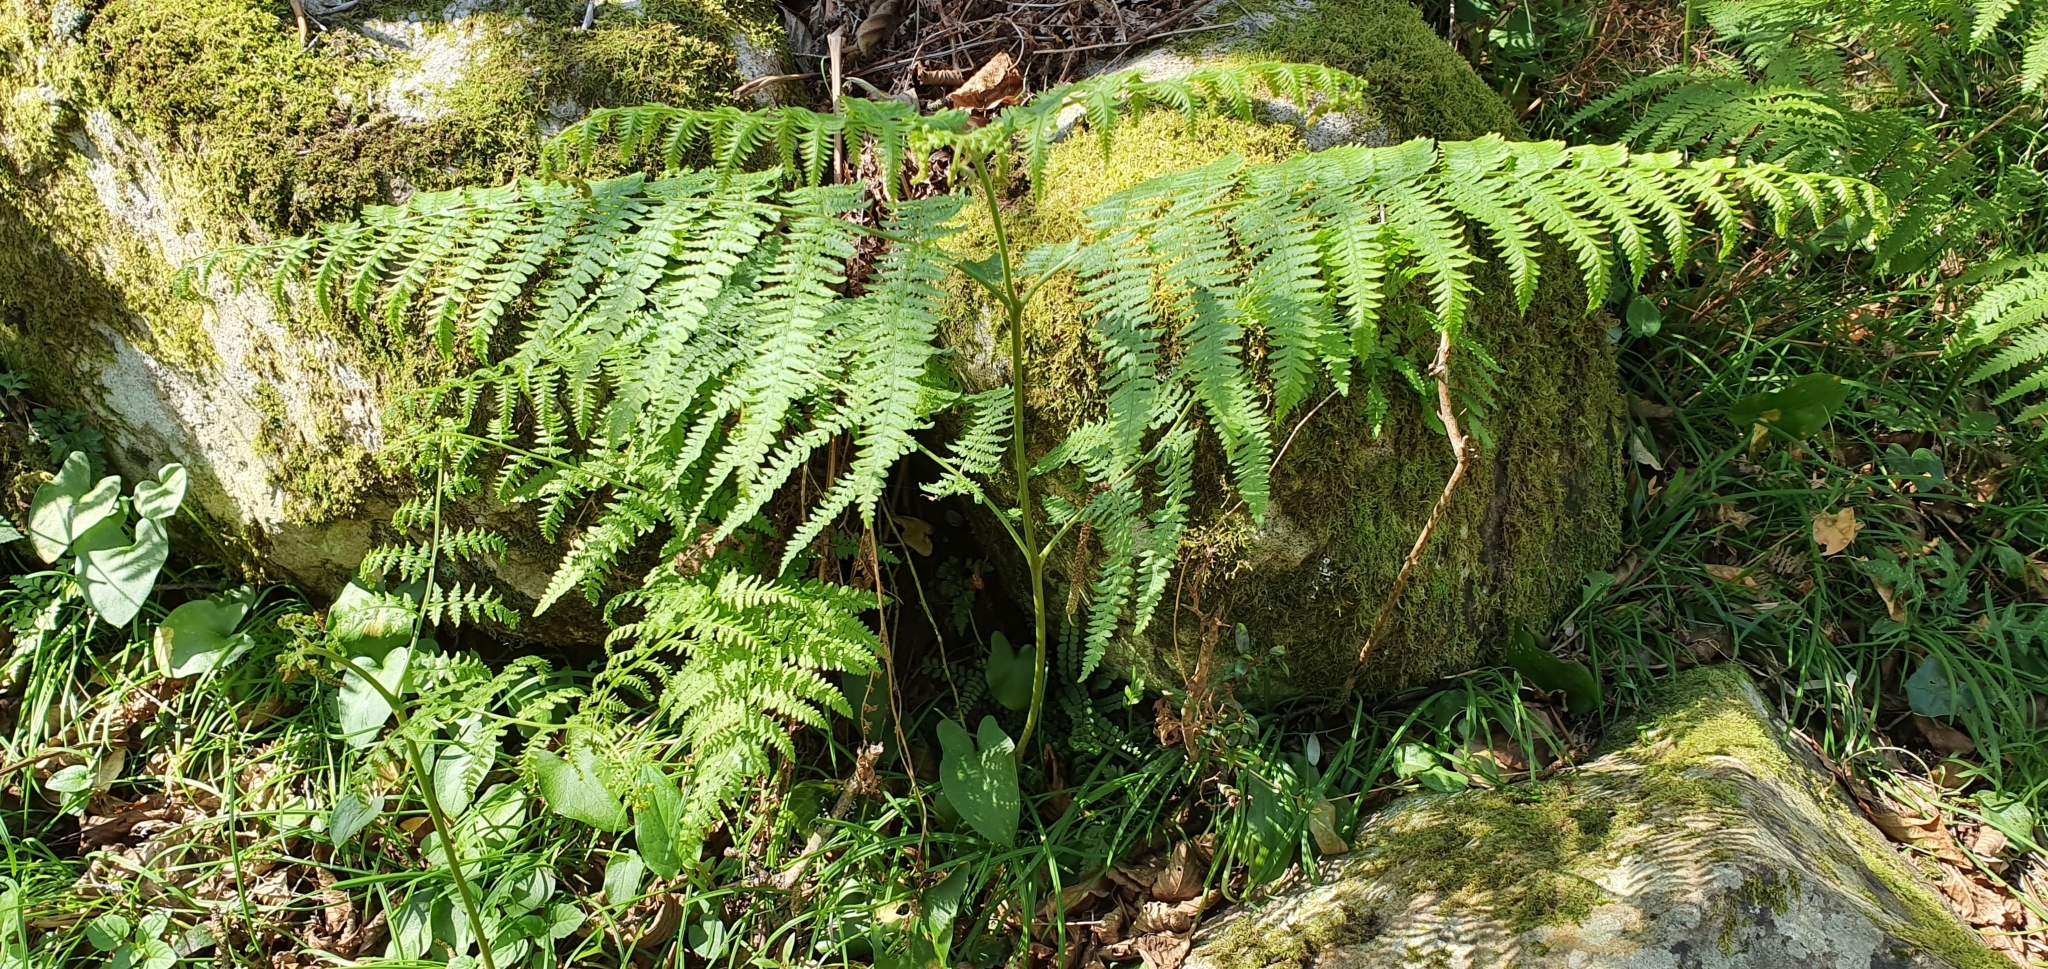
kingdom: Plantae
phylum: Tracheophyta
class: Polypodiopsida
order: Polypodiales
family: Dennstaedtiaceae
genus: Pteridium
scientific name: Pteridium aquilinum
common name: Bracken
